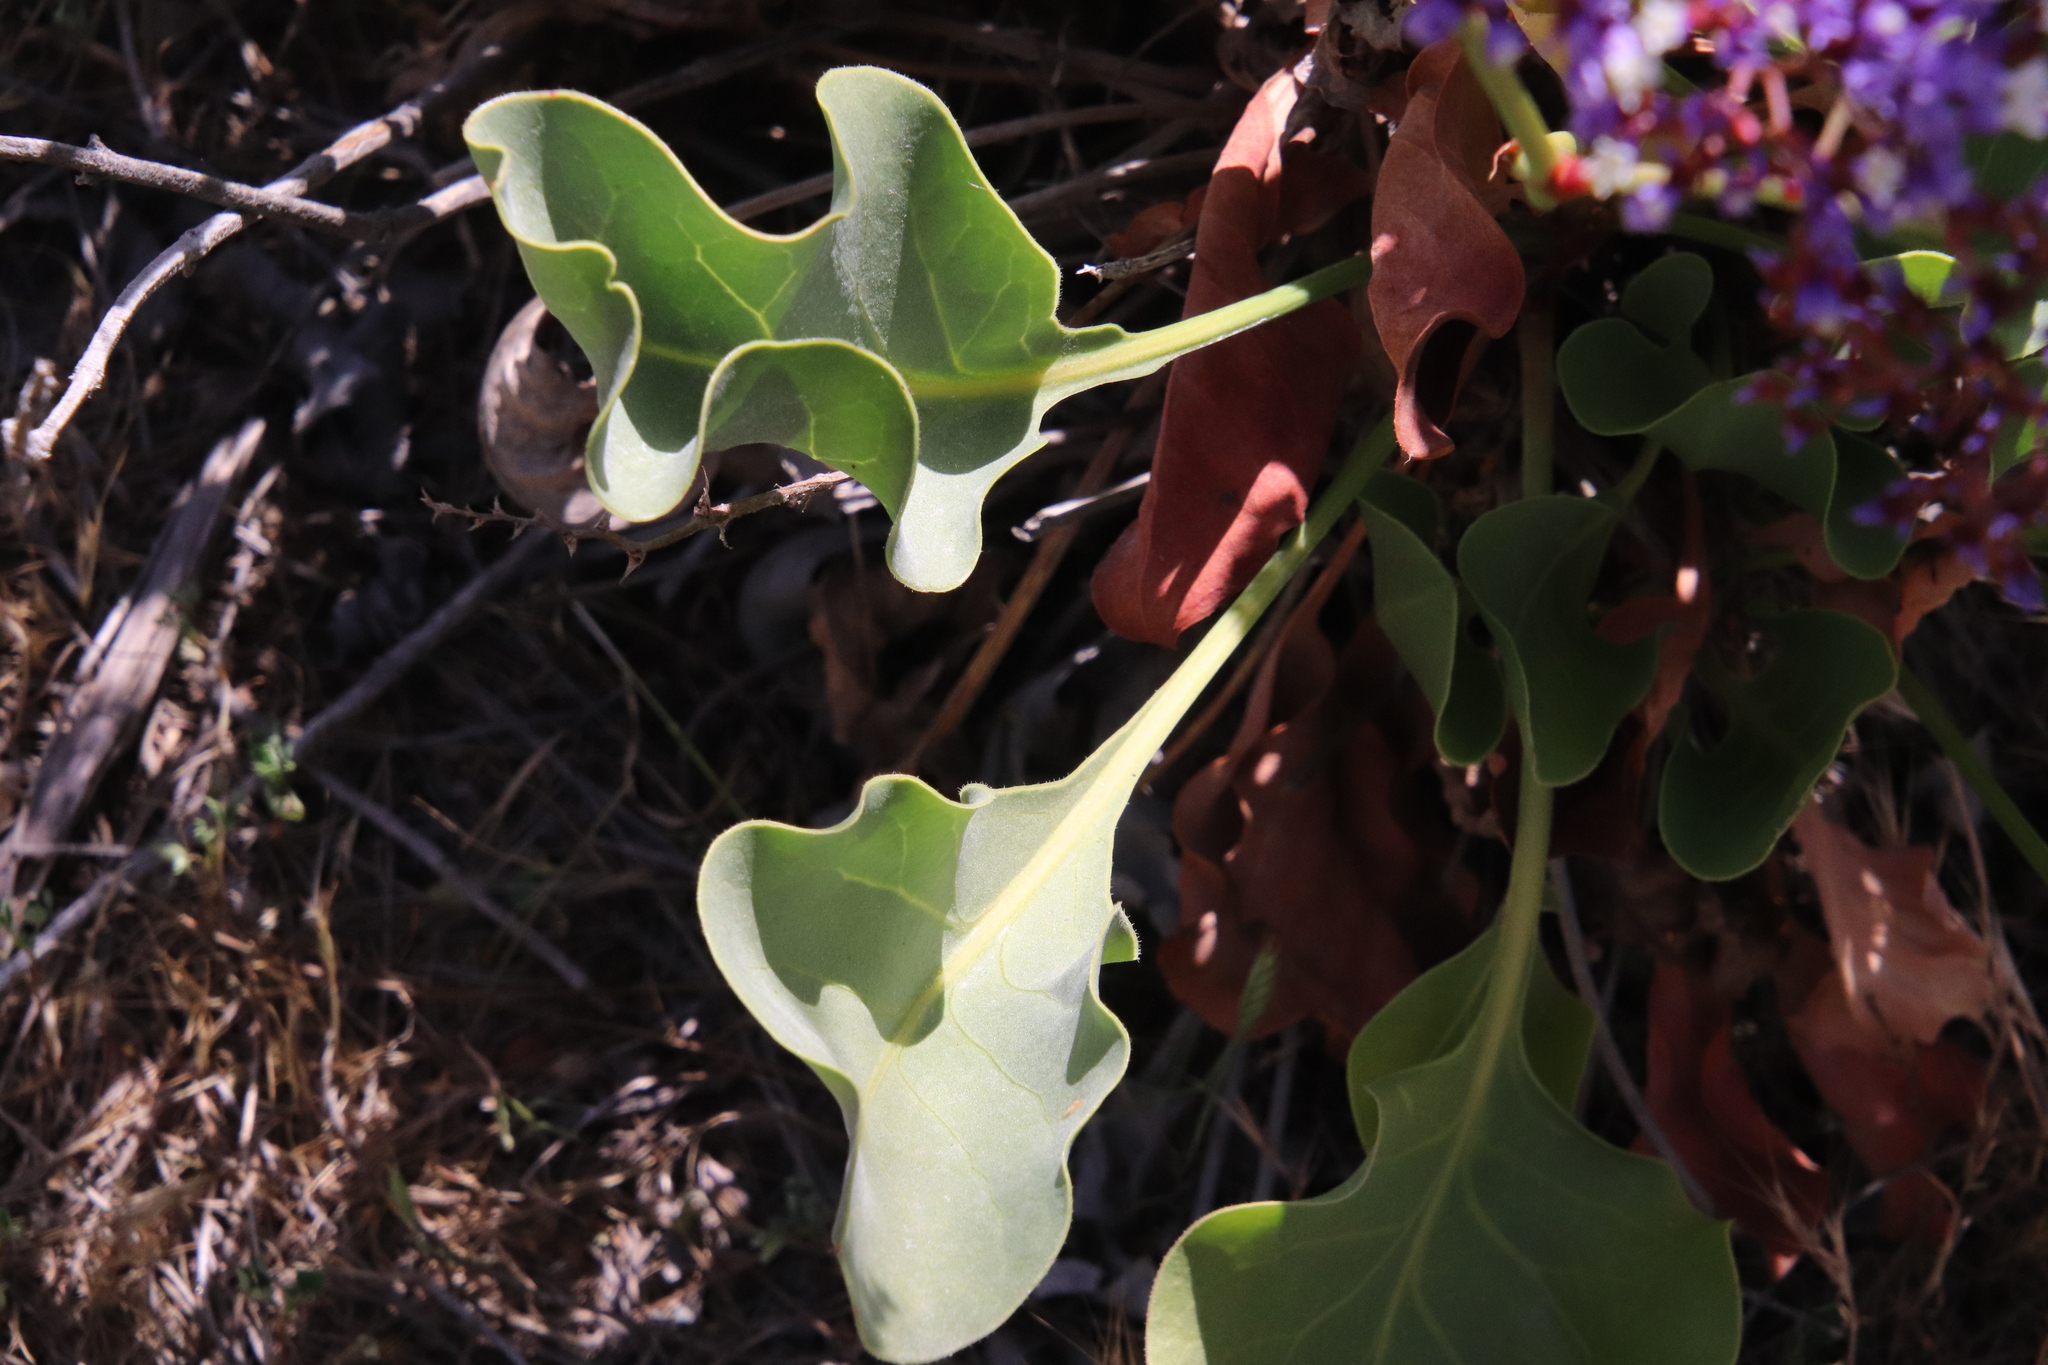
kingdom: Plantae
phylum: Tracheophyta
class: Magnoliopsida
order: Caryophyllales
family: Plumbaginaceae
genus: Limonium
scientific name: Limonium perezii
